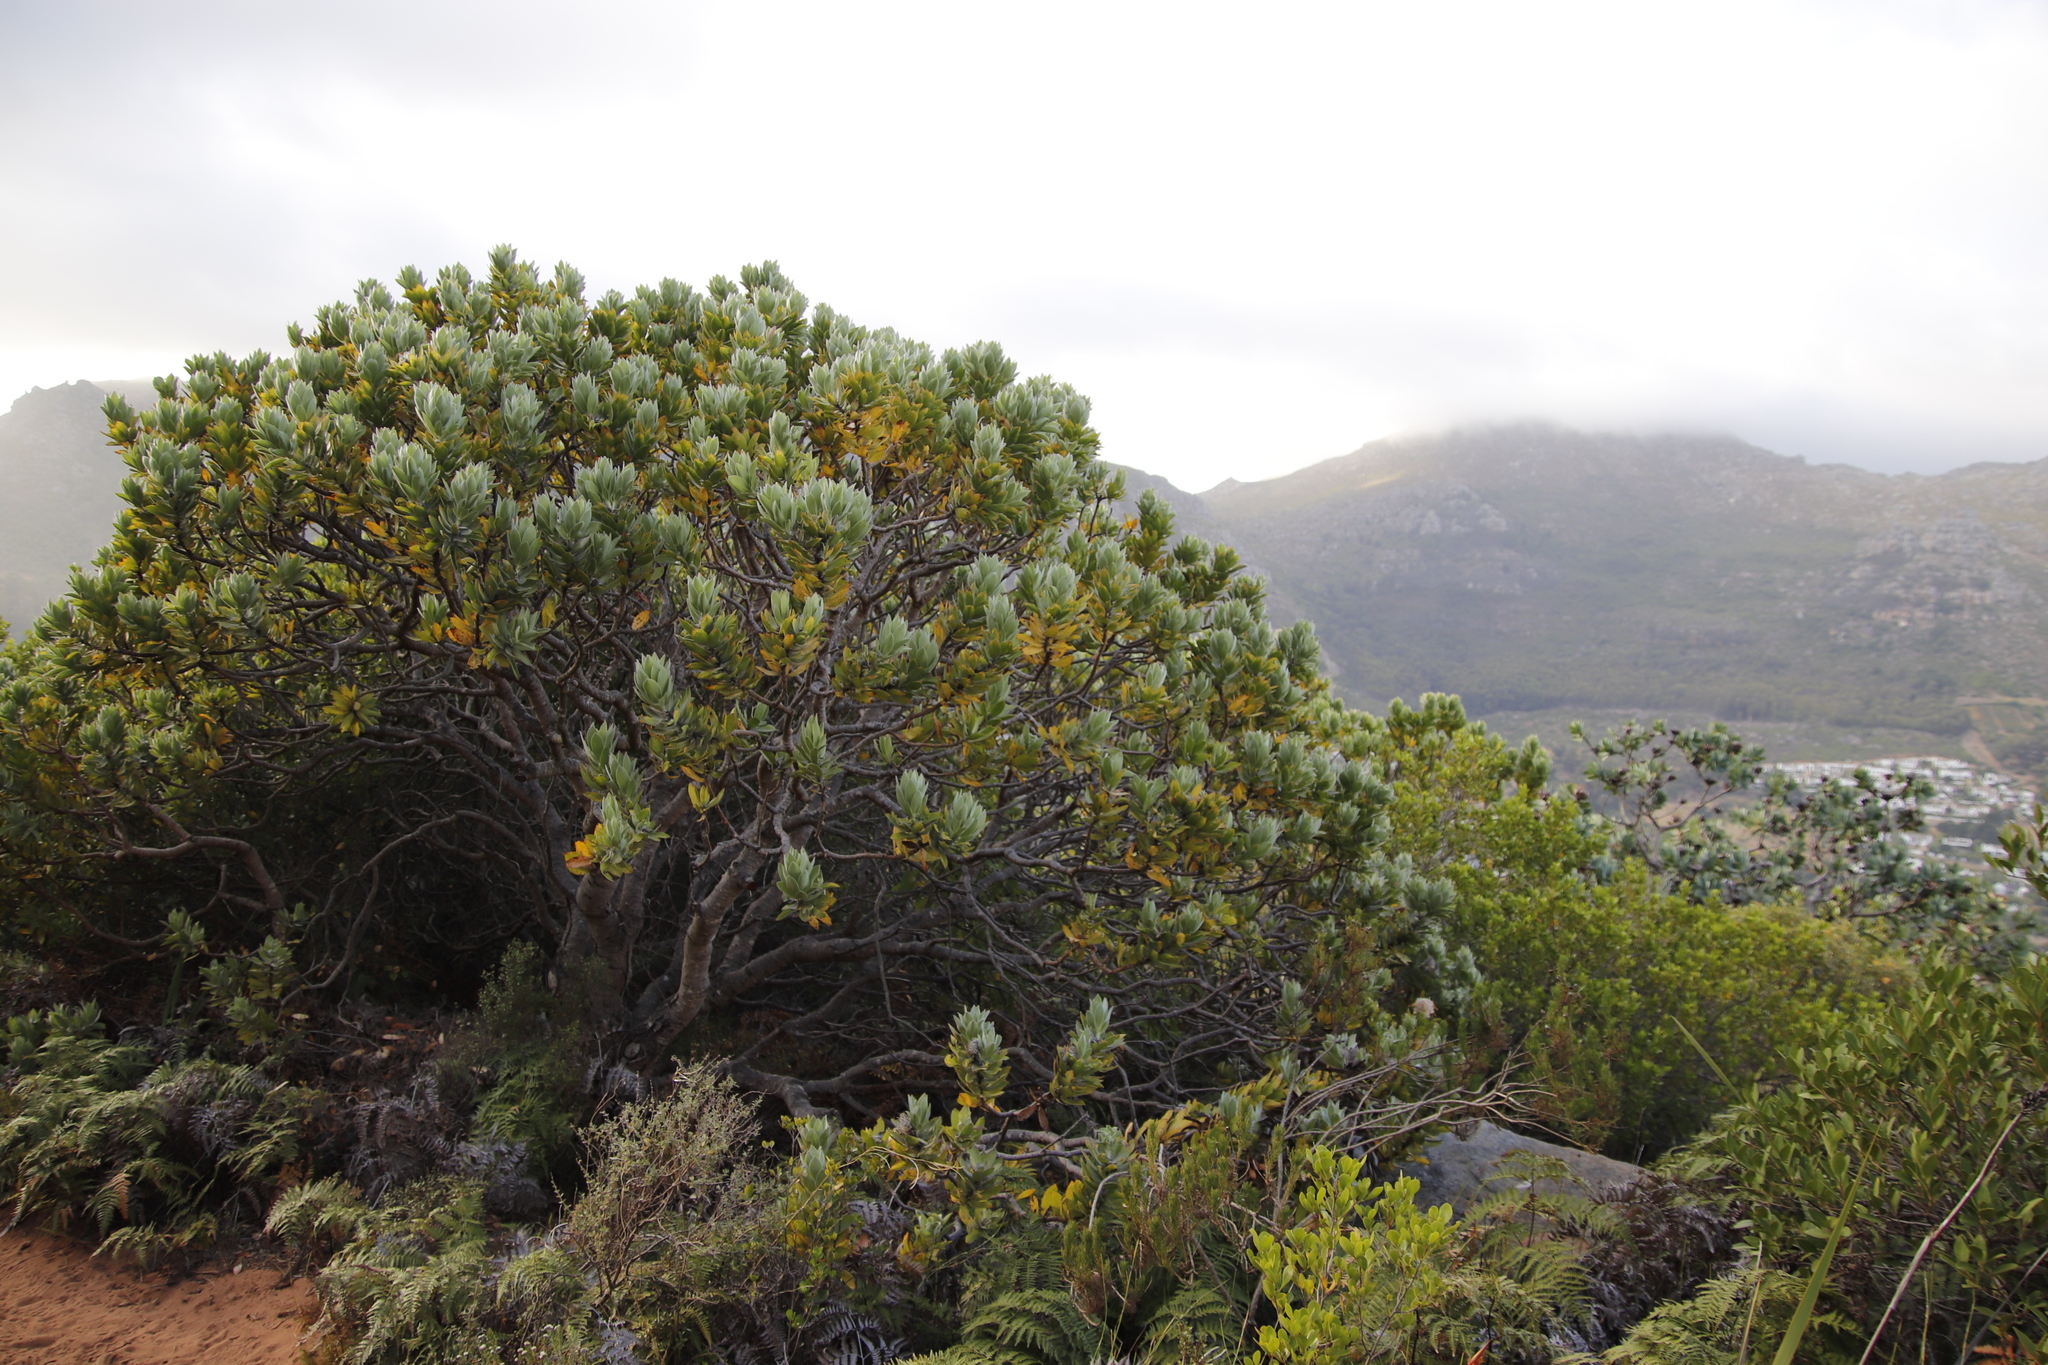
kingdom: Plantae
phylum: Tracheophyta
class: Magnoliopsida
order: Proteales
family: Proteaceae
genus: Leucospermum
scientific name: Leucospermum conocarpodendron
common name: Tree pincushion
